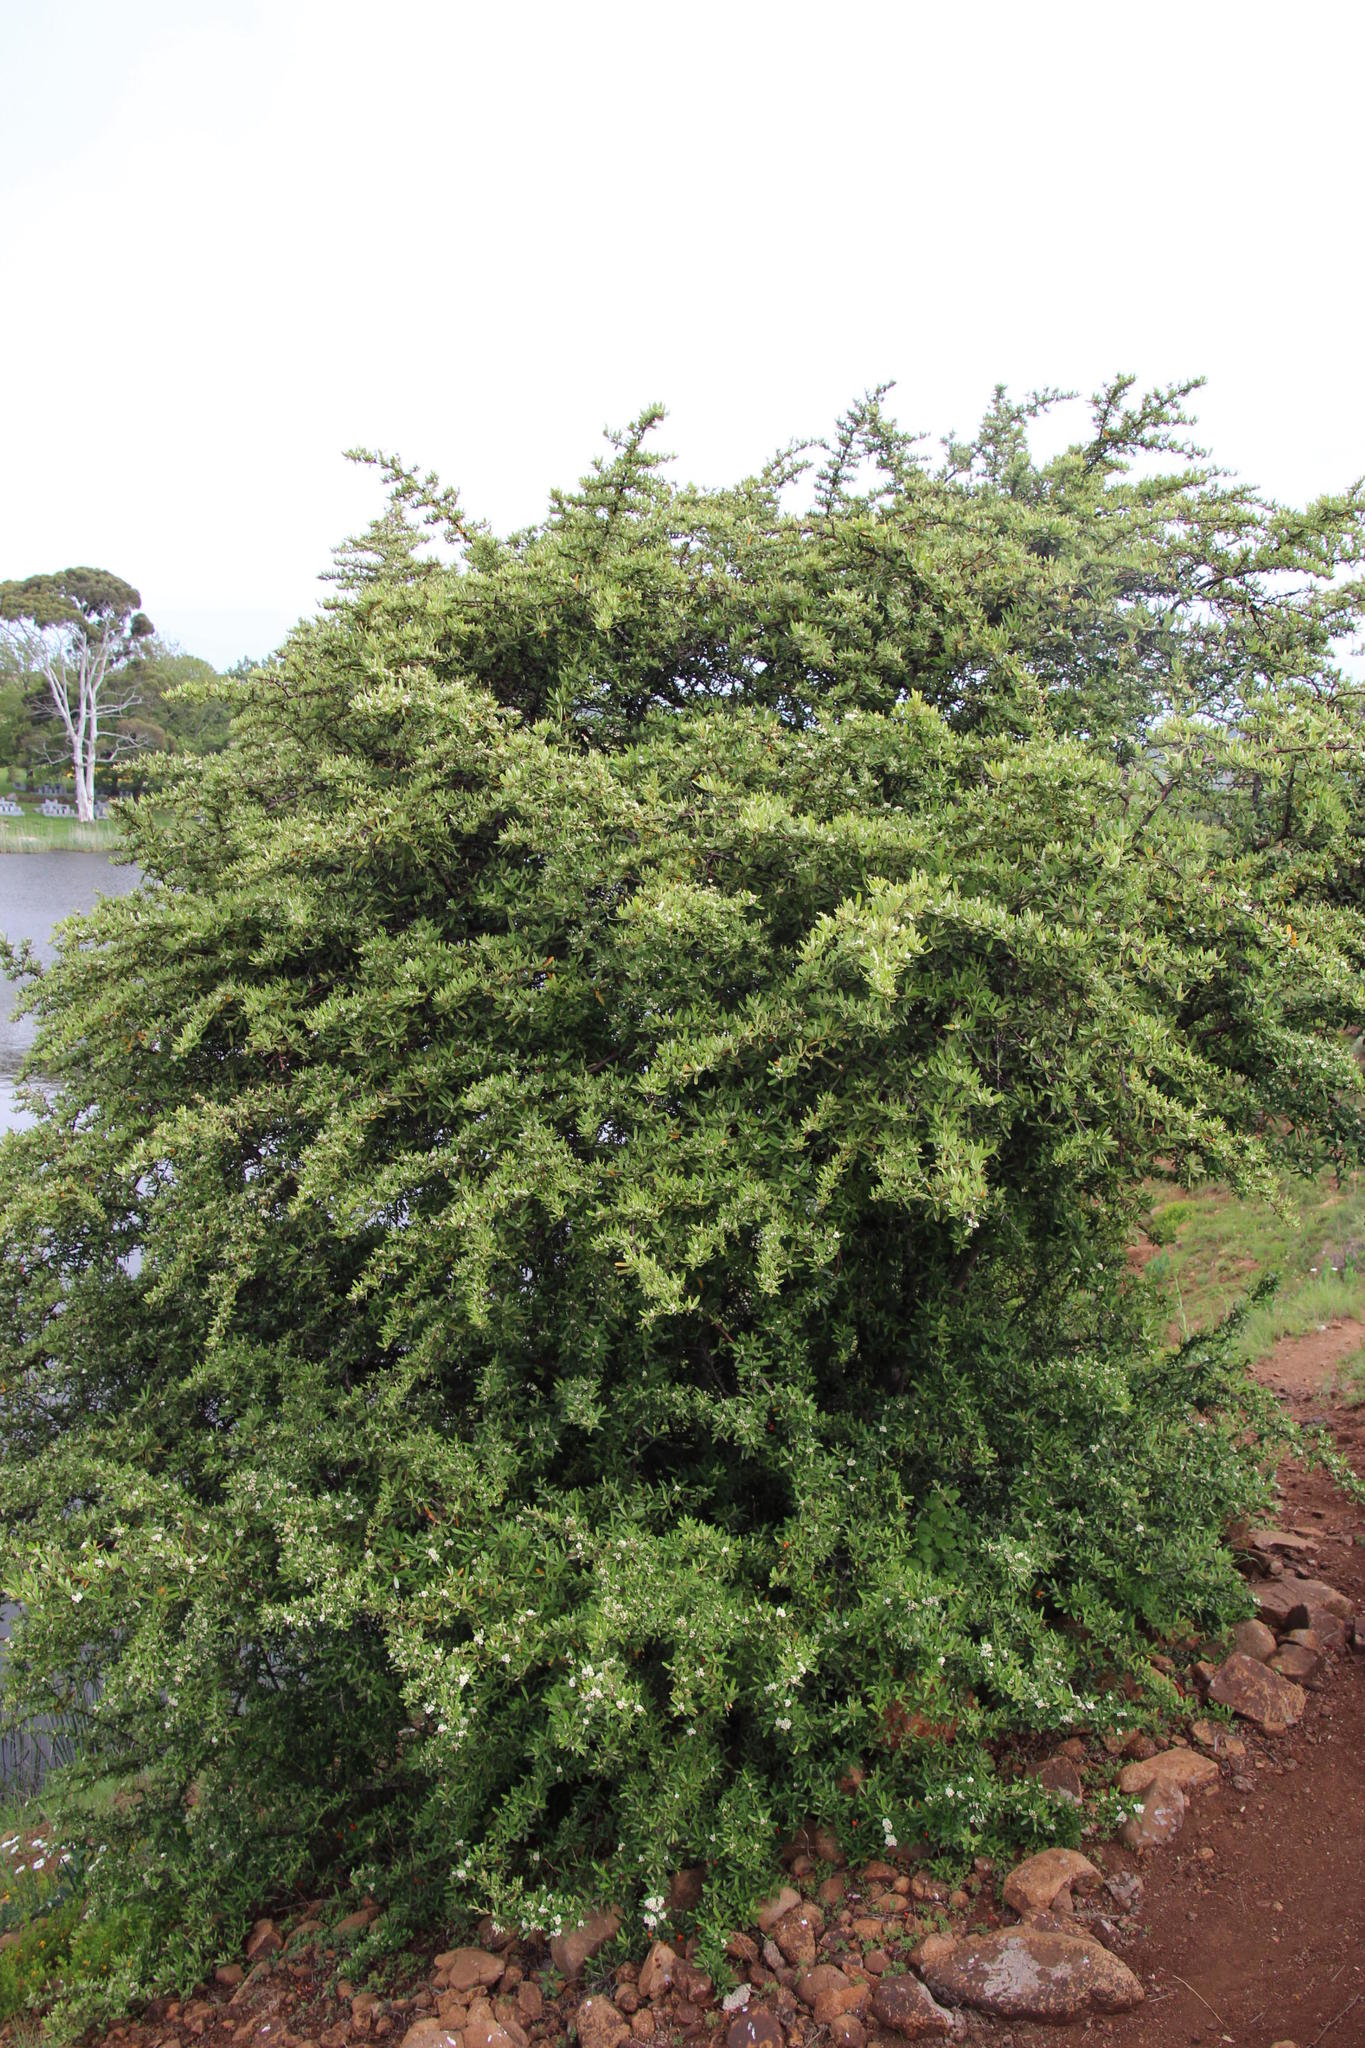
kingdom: Plantae
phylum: Tracheophyta
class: Magnoliopsida
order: Rosales
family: Rosaceae
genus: Pyracantha
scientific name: Pyracantha angustifolia
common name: Narrowleaf firethorn
